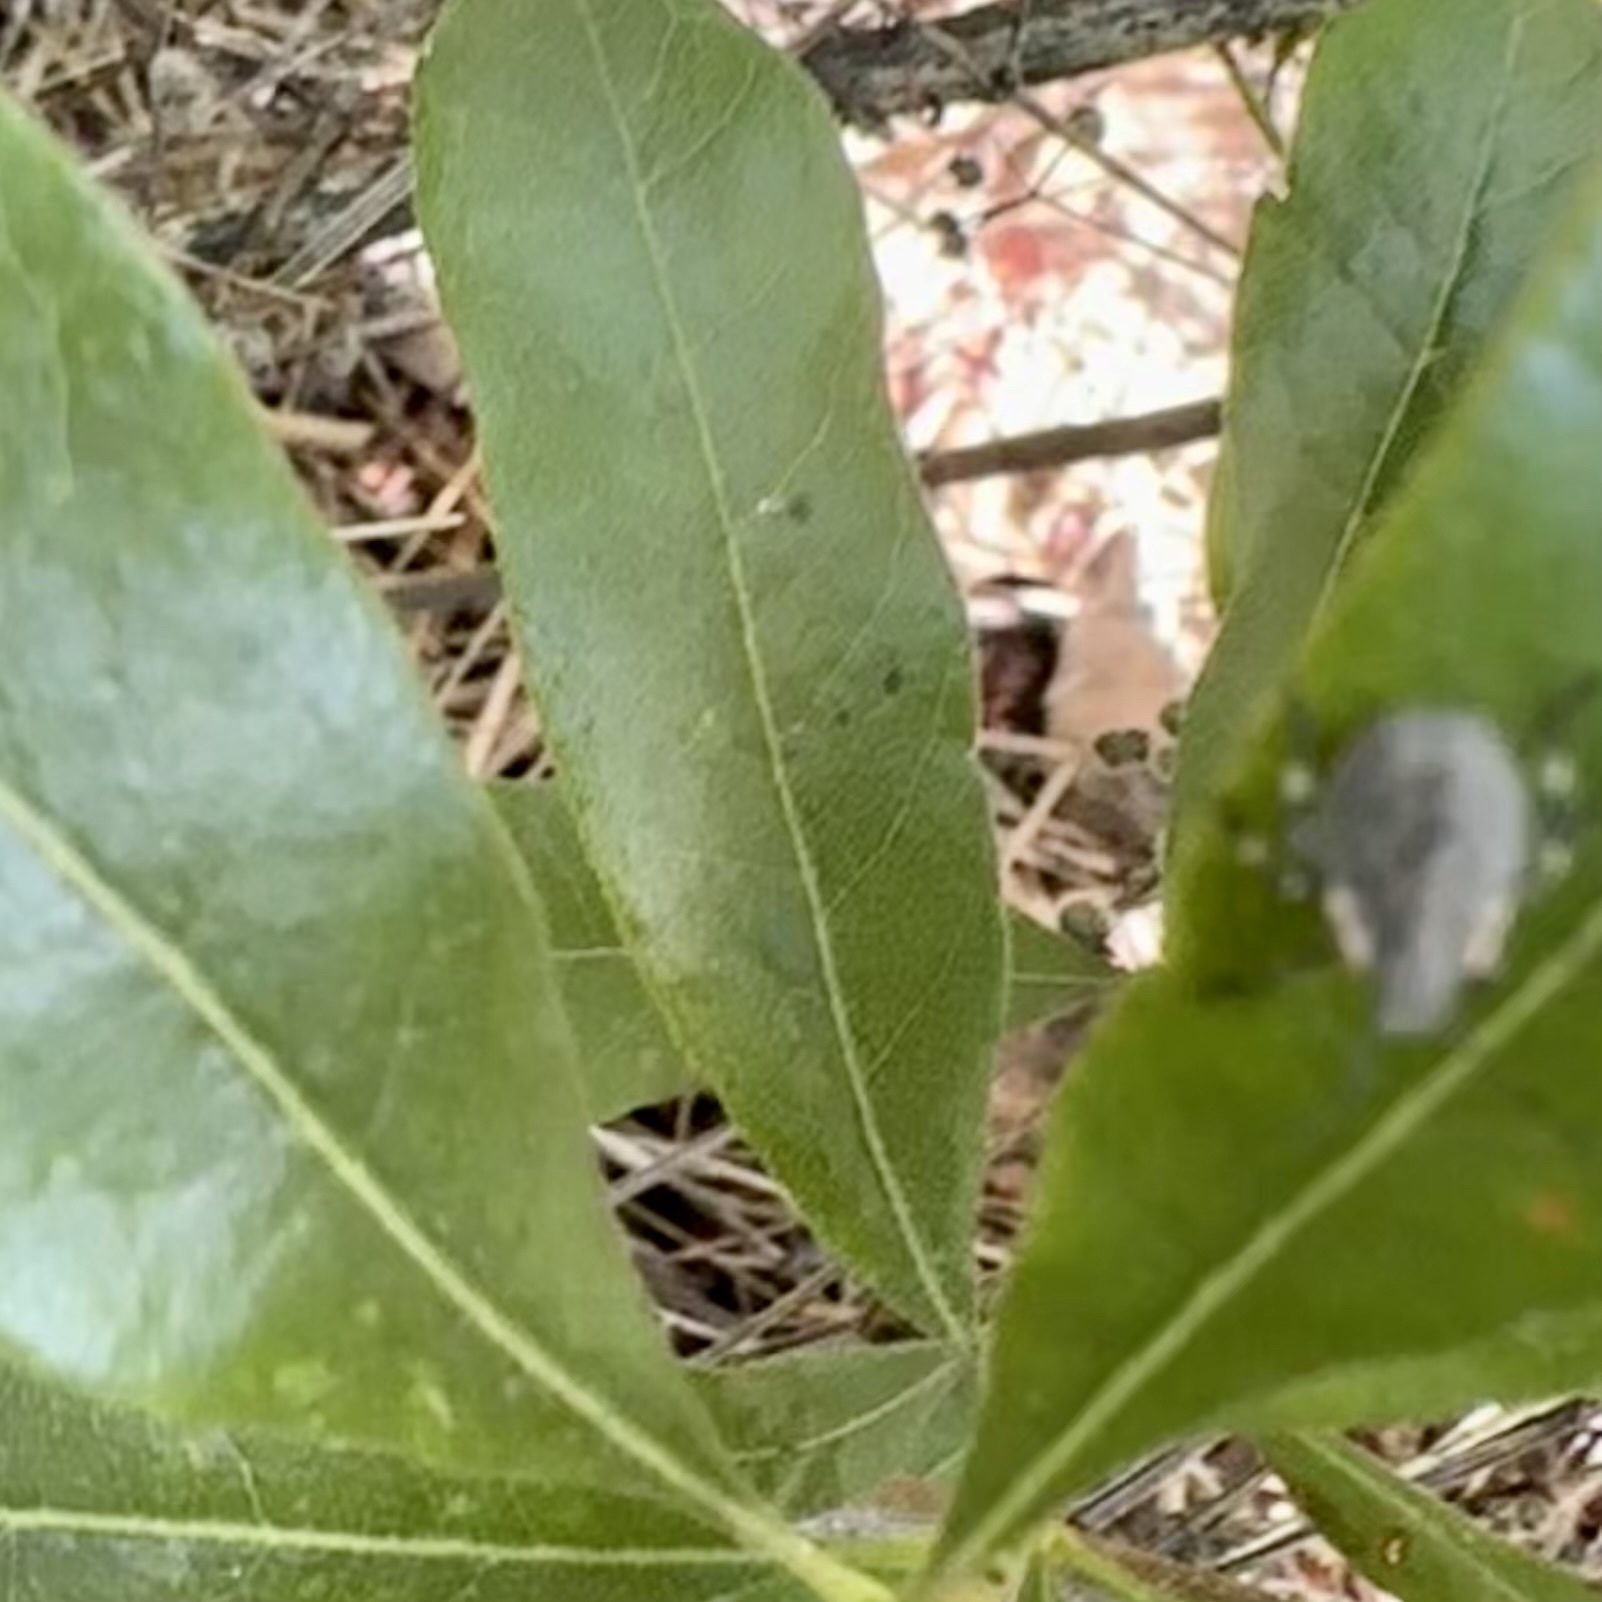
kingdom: Animalia
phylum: Arthropoda
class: Insecta
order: Hemiptera
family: Pentatomidae
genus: Halyomorpha
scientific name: Halyomorpha halys
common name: Brown marmorated stink bug
